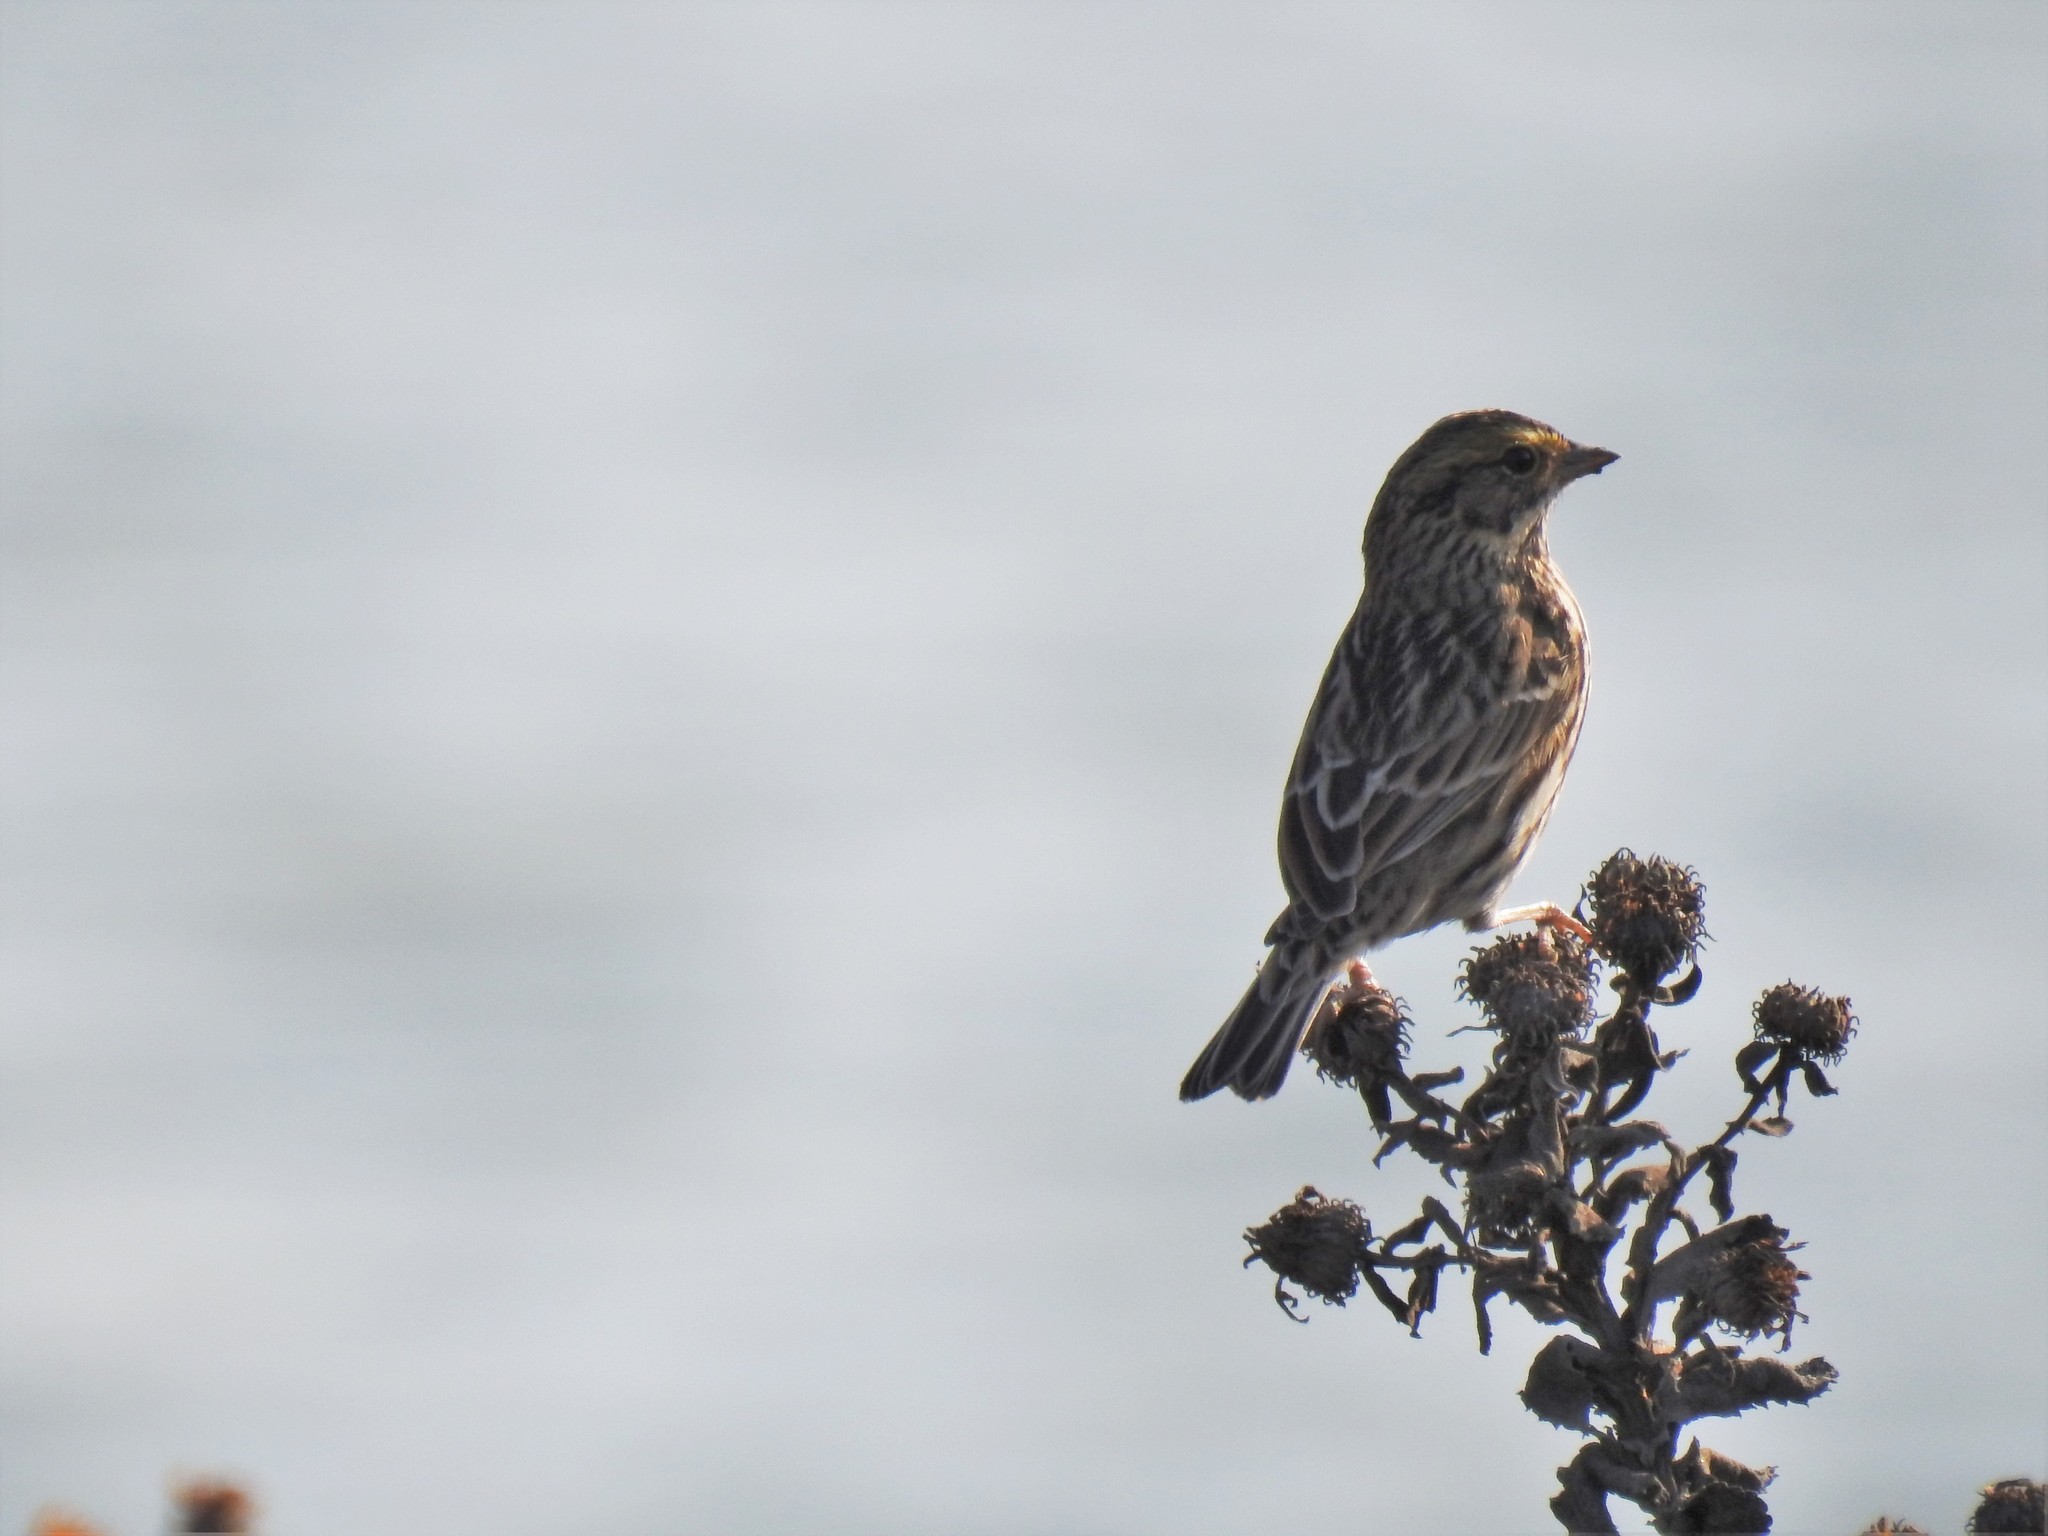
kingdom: Animalia
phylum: Chordata
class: Aves
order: Passeriformes
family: Passerellidae
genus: Passerculus
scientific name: Passerculus sandwichensis
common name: Savannah sparrow
